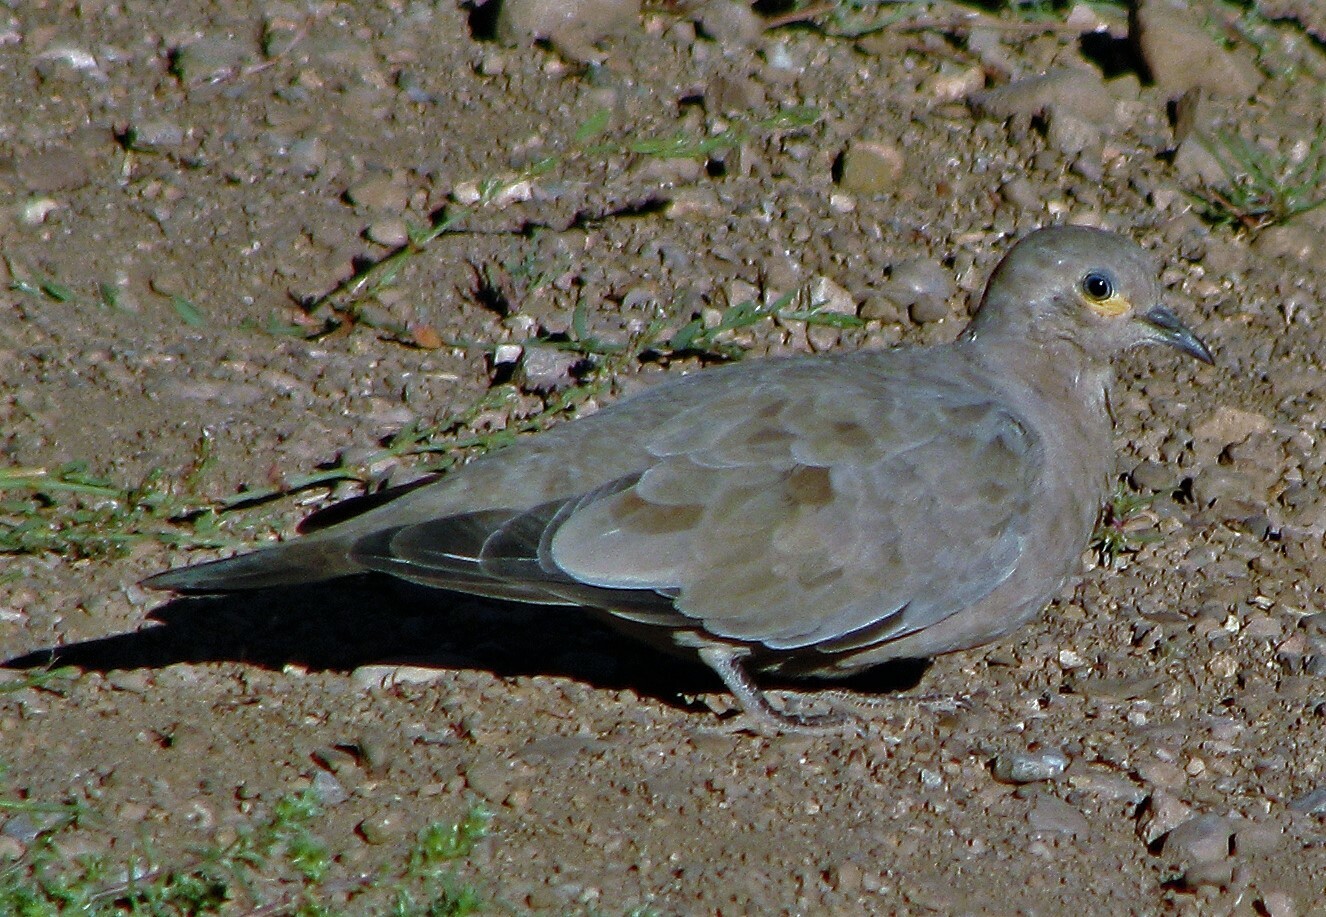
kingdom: Animalia
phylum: Chordata
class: Aves
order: Columbiformes
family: Columbidae
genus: Metriopelia
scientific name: Metriopelia melanoptera
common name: Black-winged ground dove
